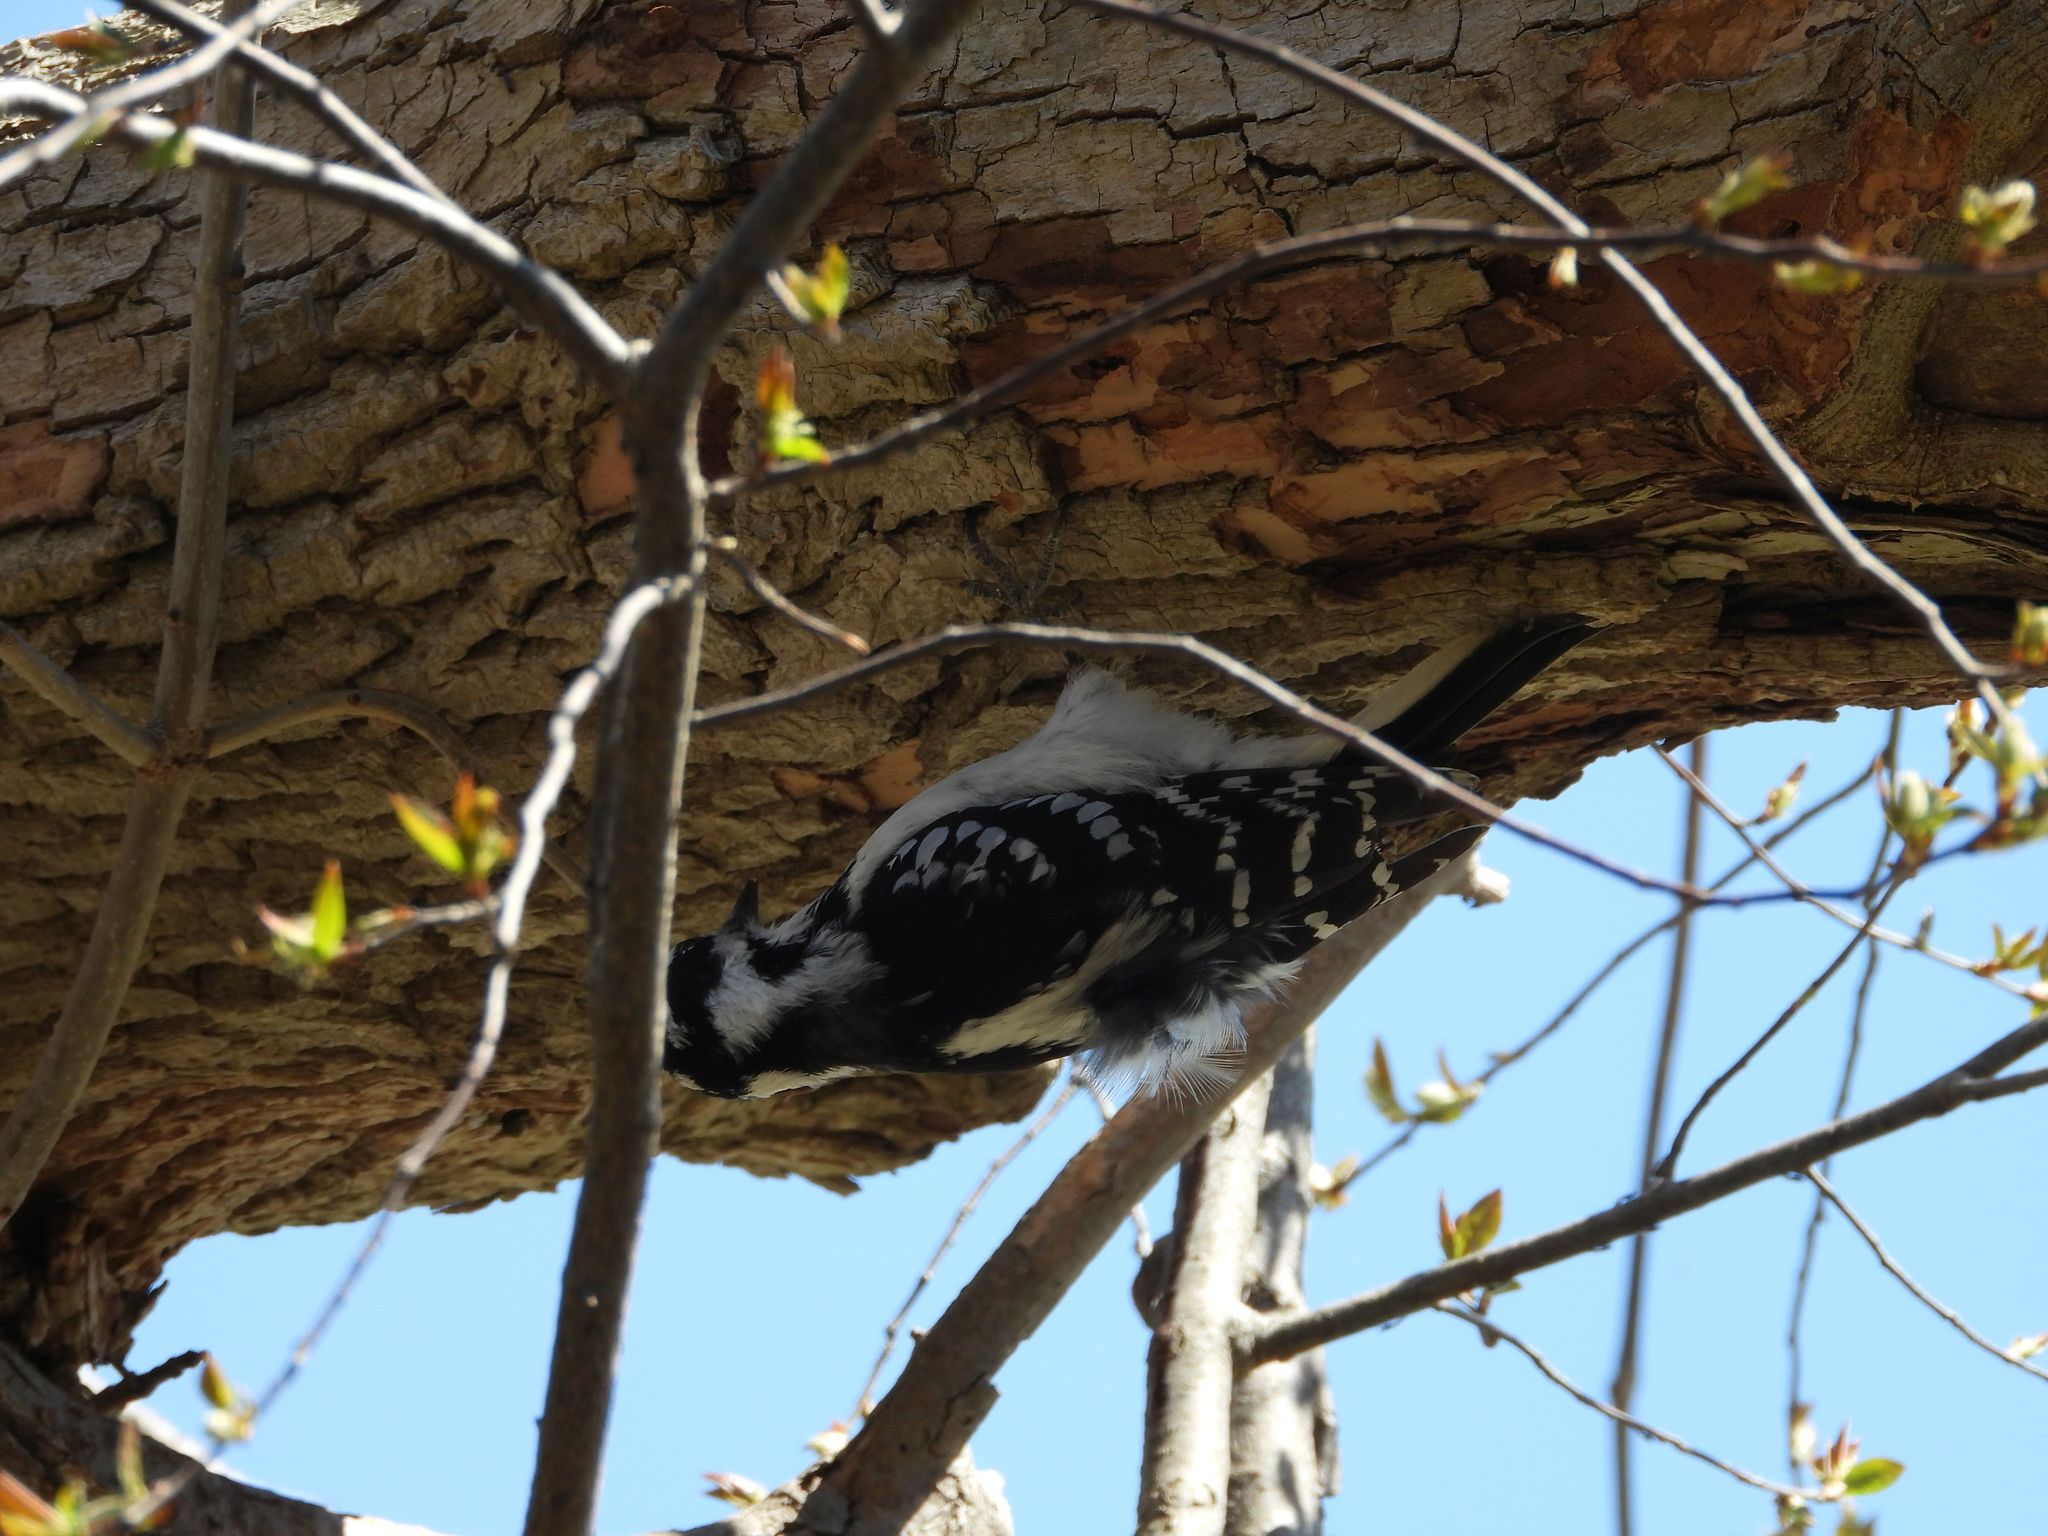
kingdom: Animalia
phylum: Chordata
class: Aves
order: Piciformes
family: Picidae
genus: Leuconotopicus
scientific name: Leuconotopicus villosus
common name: Hairy woodpecker
